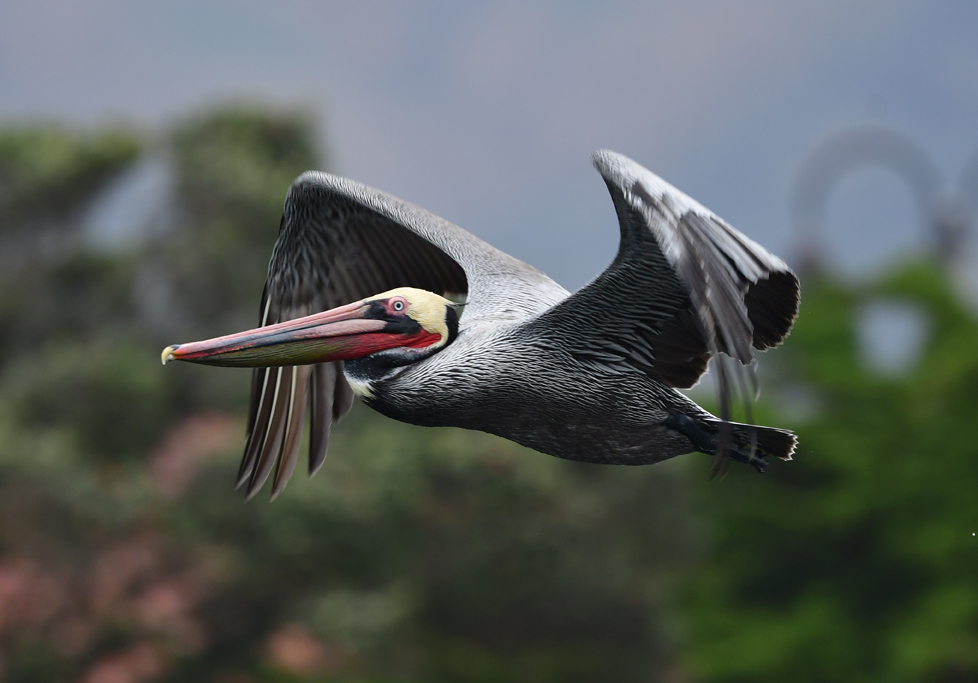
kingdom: Animalia
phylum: Chordata
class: Aves
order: Pelecaniformes
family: Pelecanidae
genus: Pelecanus
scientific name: Pelecanus occidentalis
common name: Brown pelican
